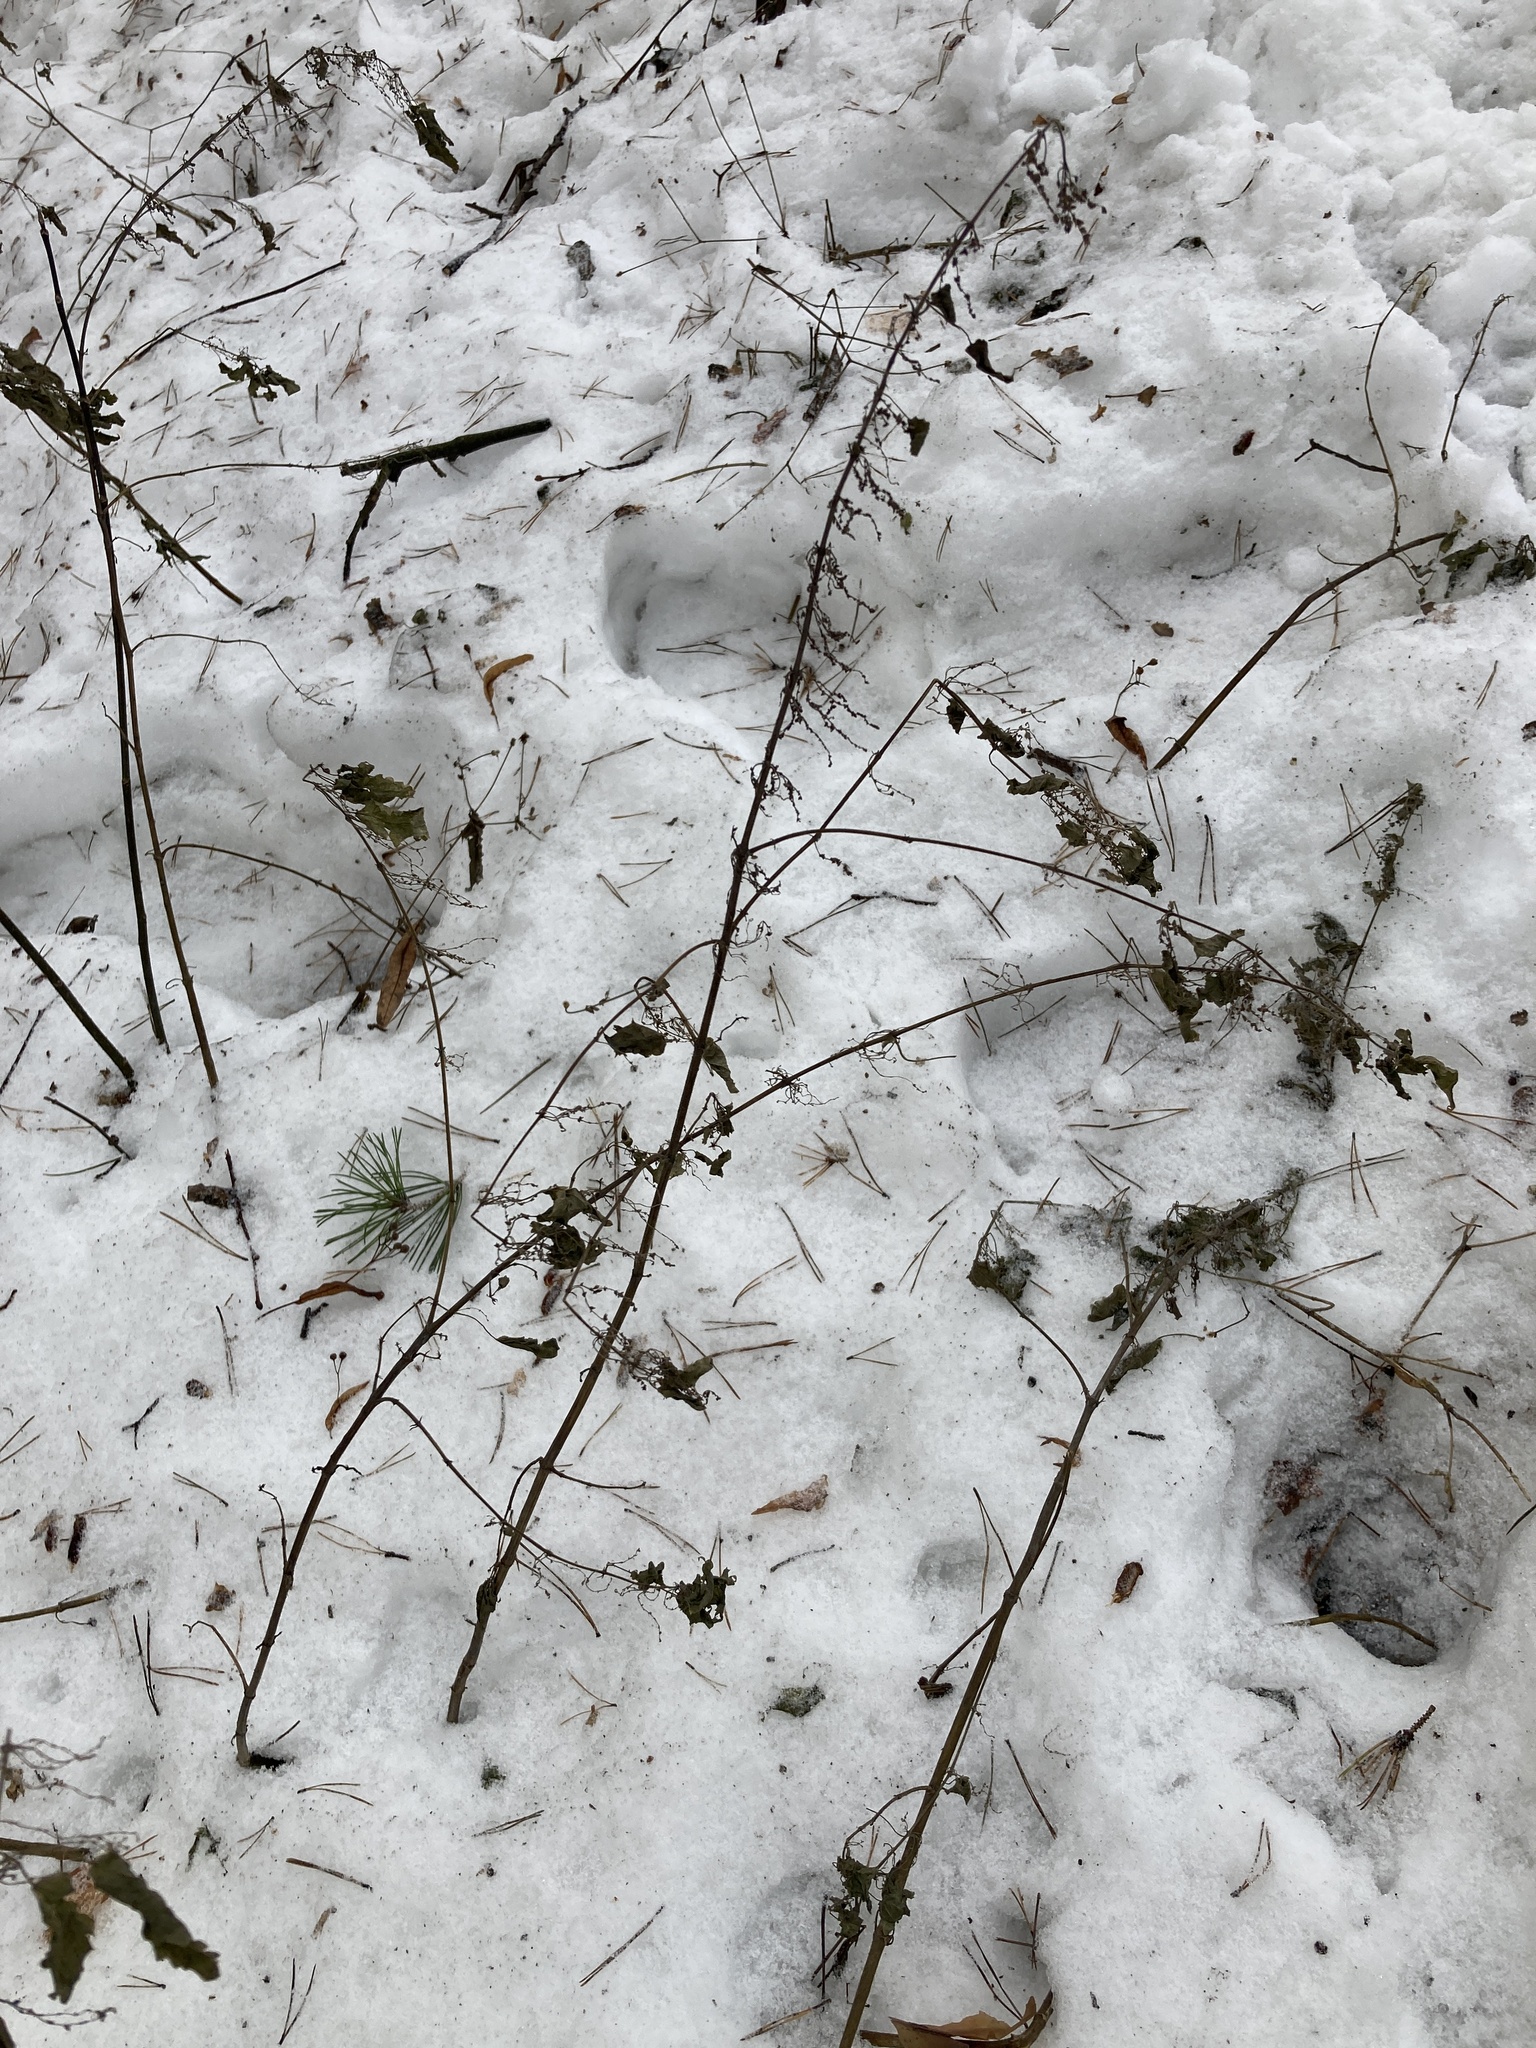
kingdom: Plantae
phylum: Tracheophyta
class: Magnoliopsida
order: Rosales
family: Urticaceae
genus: Urtica
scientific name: Urtica dioica
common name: Common nettle
